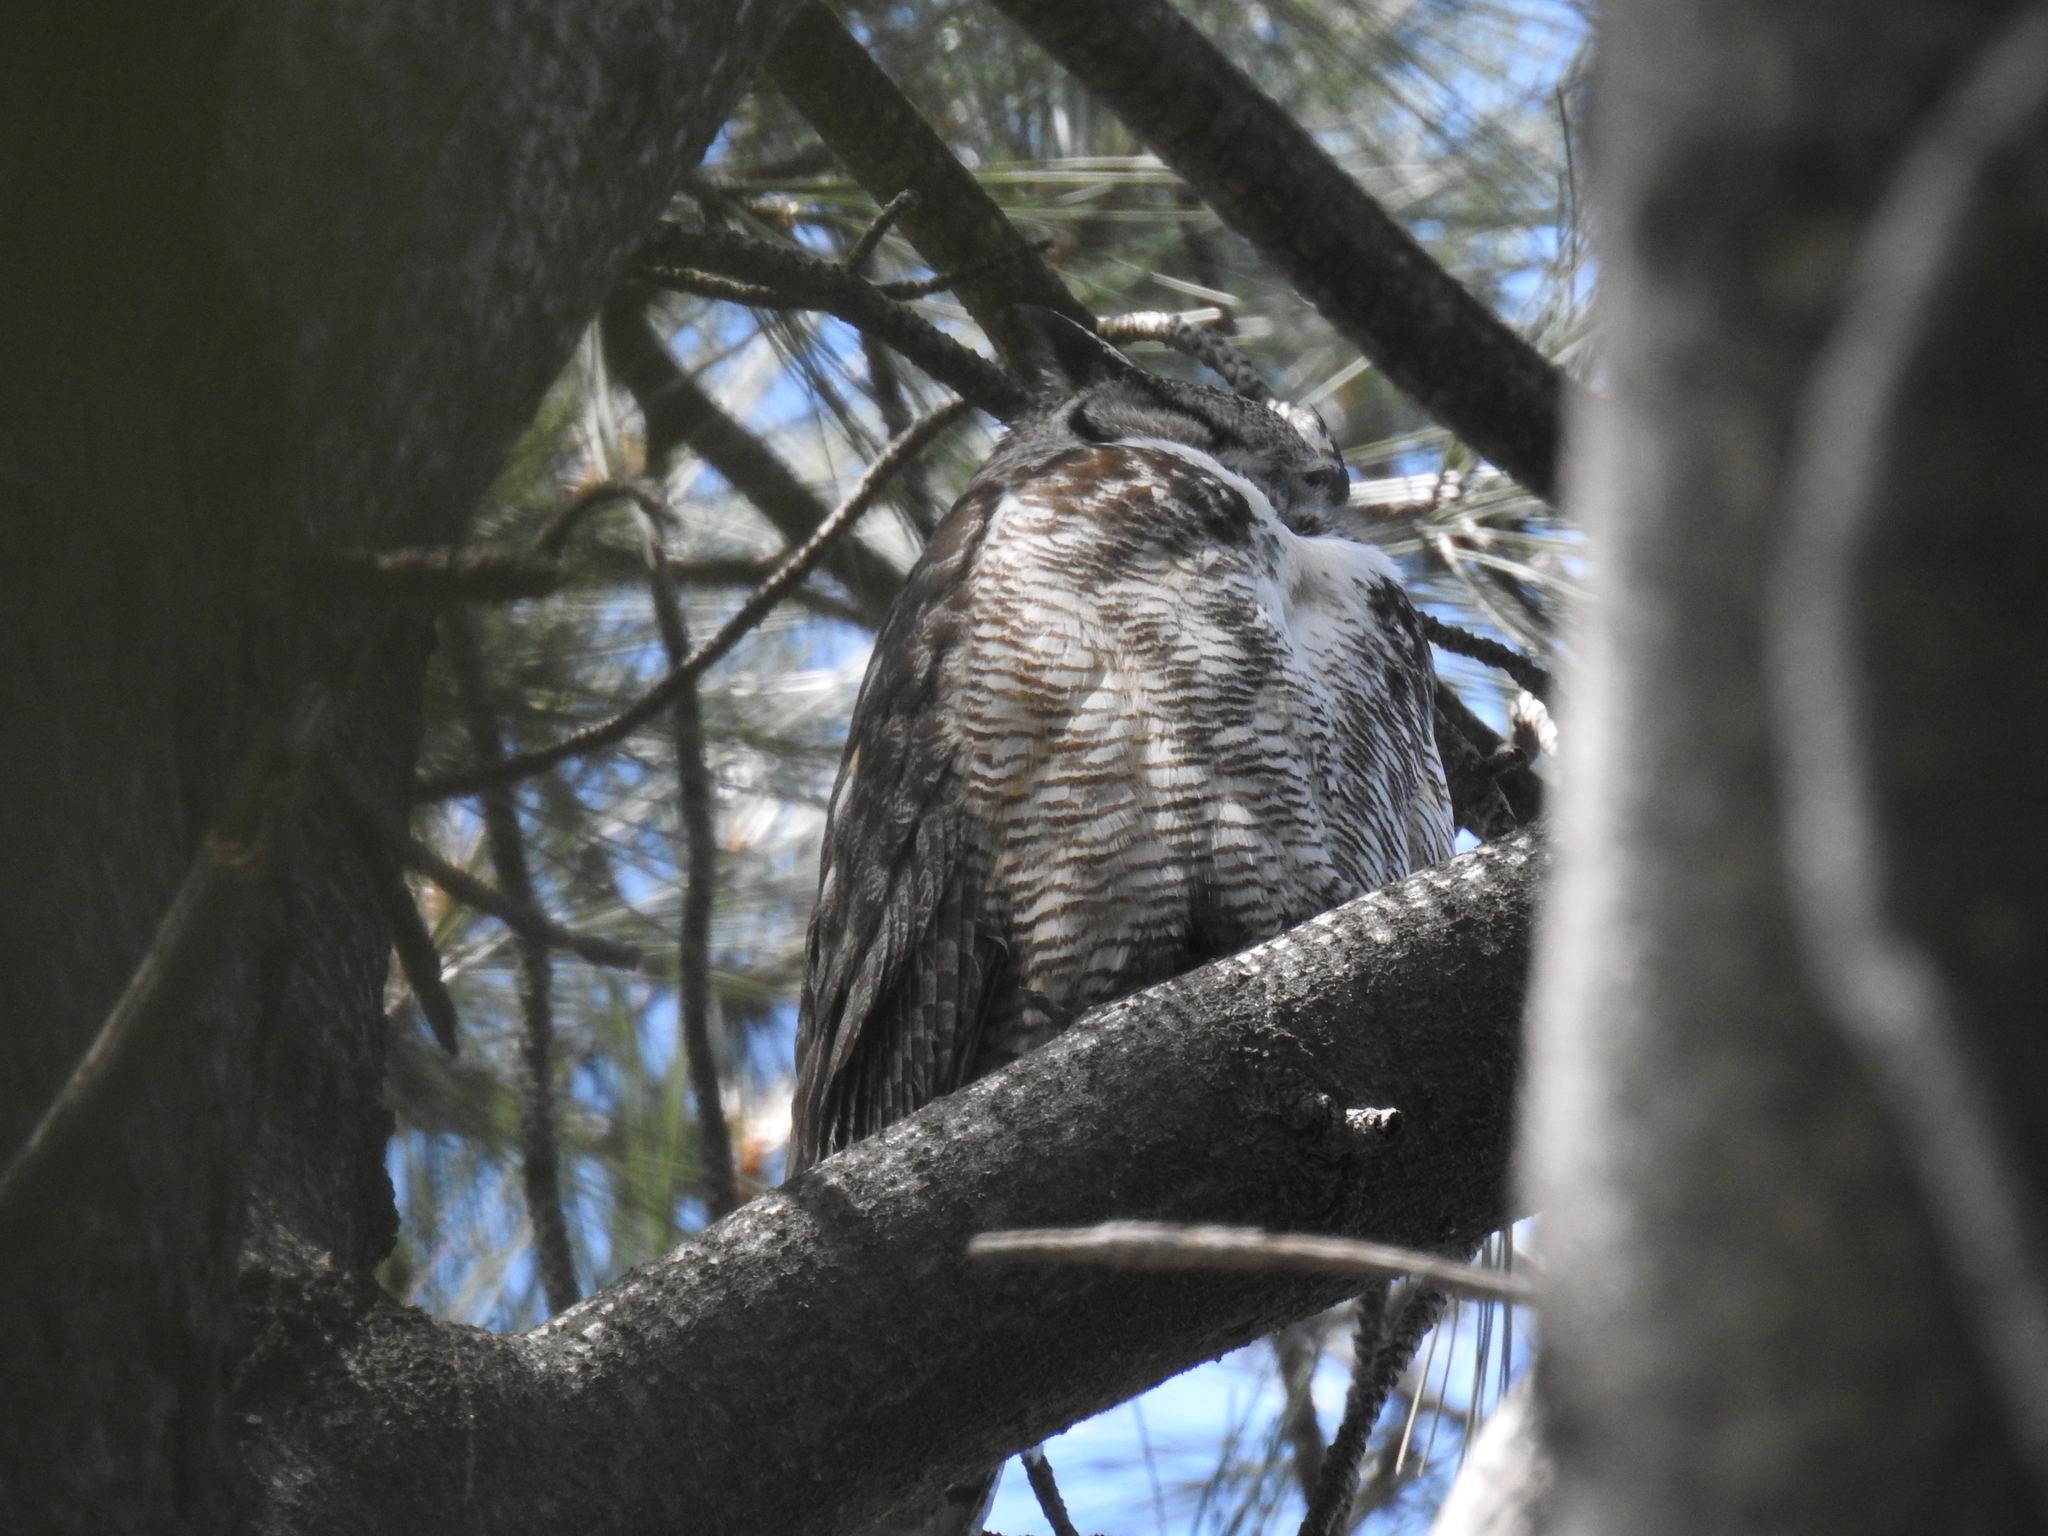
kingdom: Animalia
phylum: Chordata
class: Aves
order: Strigiformes
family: Strigidae
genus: Bubo
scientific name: Bubo virginianus
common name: Great horned owl
